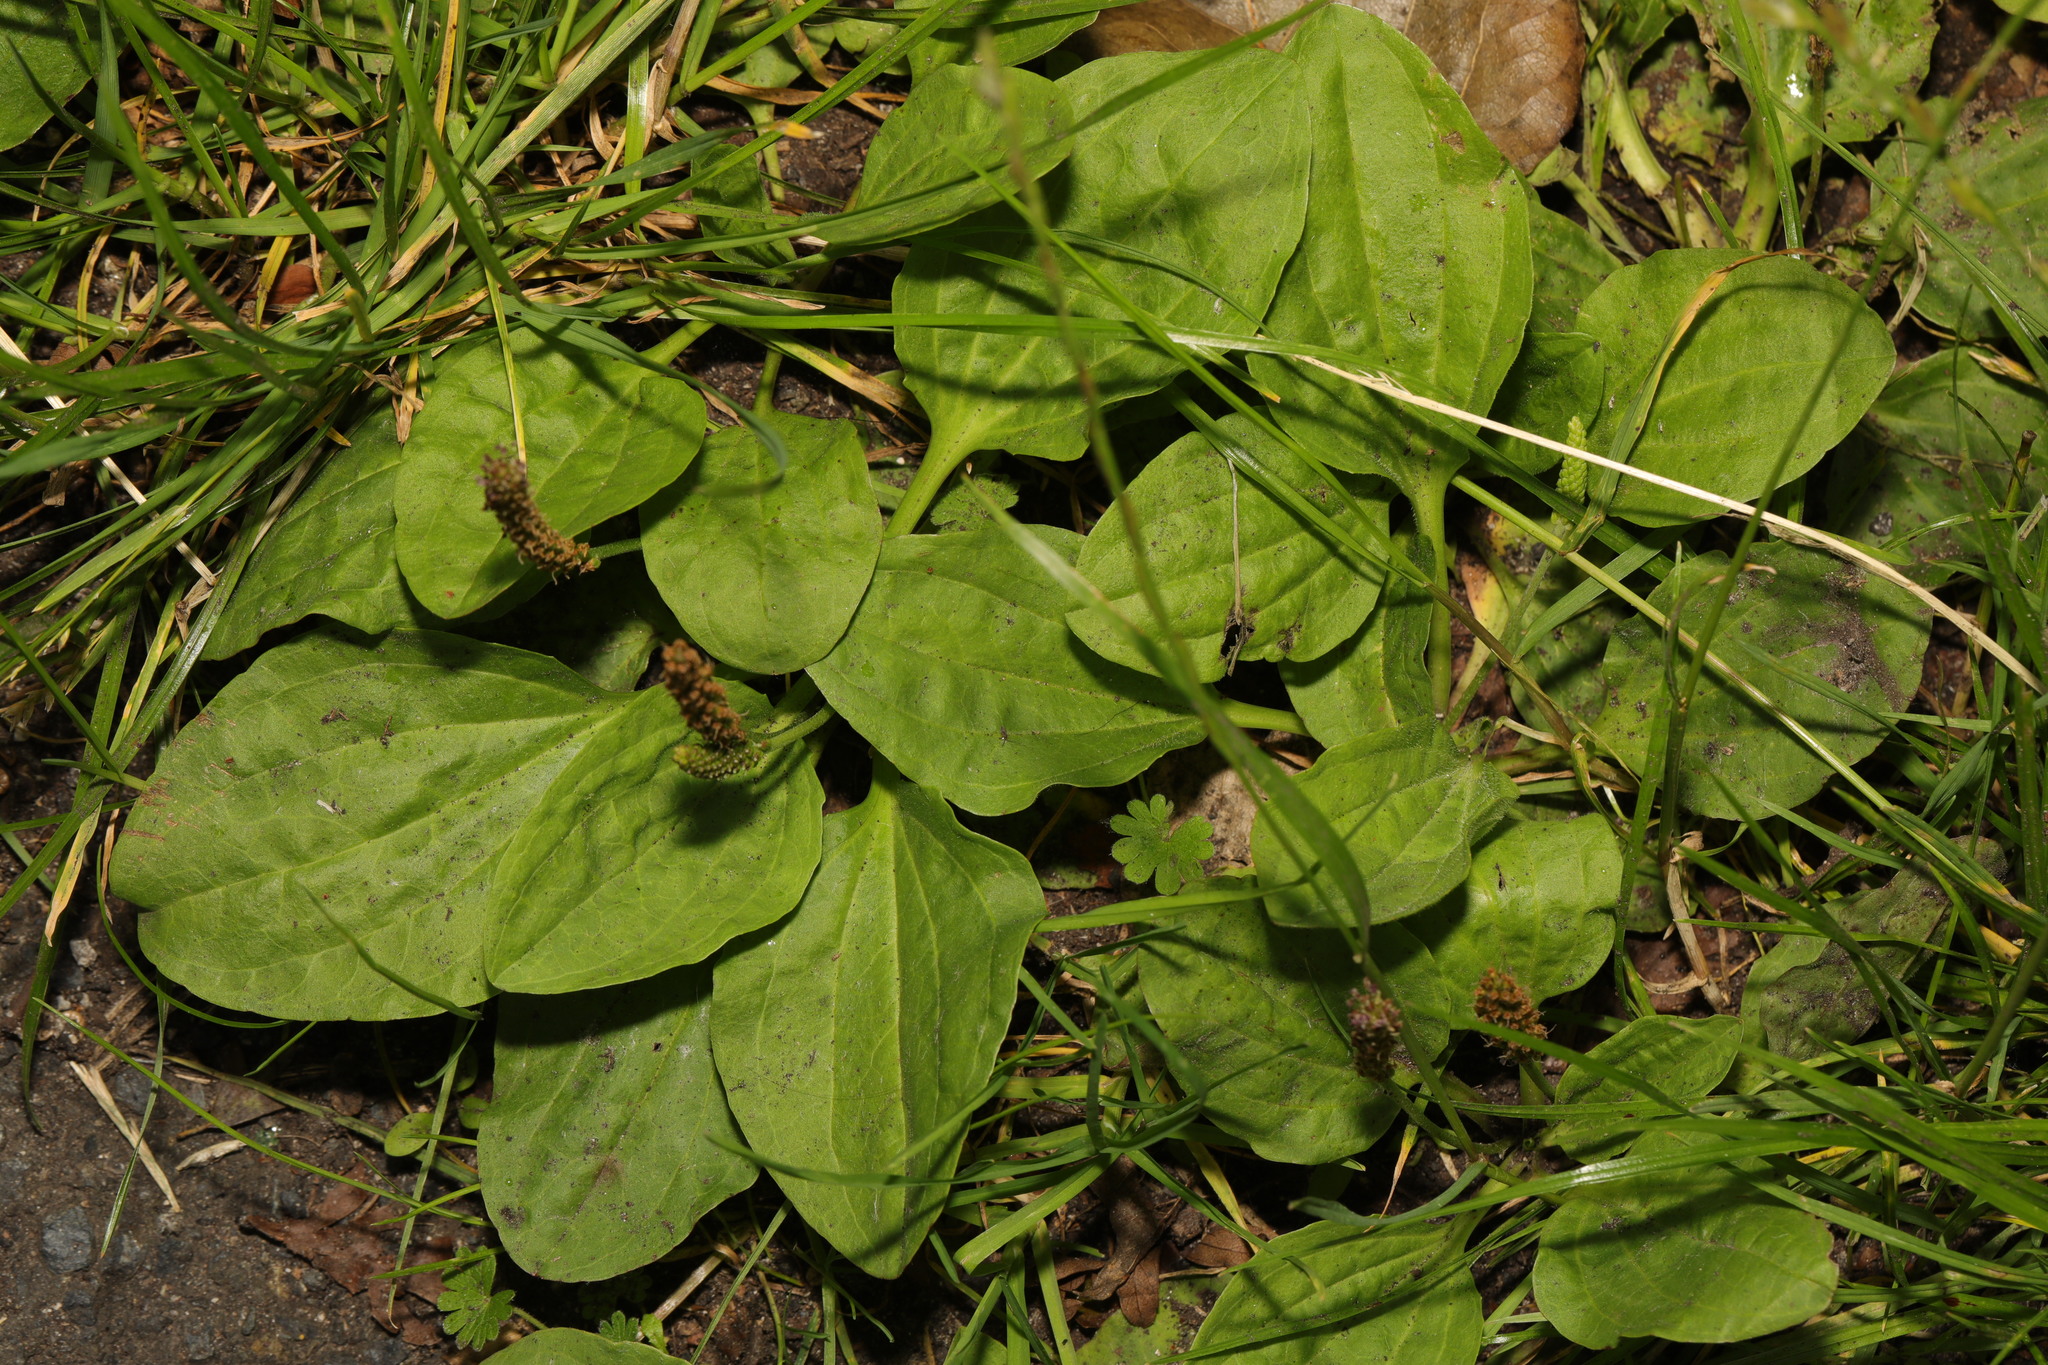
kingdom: Plantae
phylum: Tracheophyta
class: Magnoliopsida
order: Lamiales
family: Plantaginaceae
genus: Plantago
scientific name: Plantago major
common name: Common plantain
